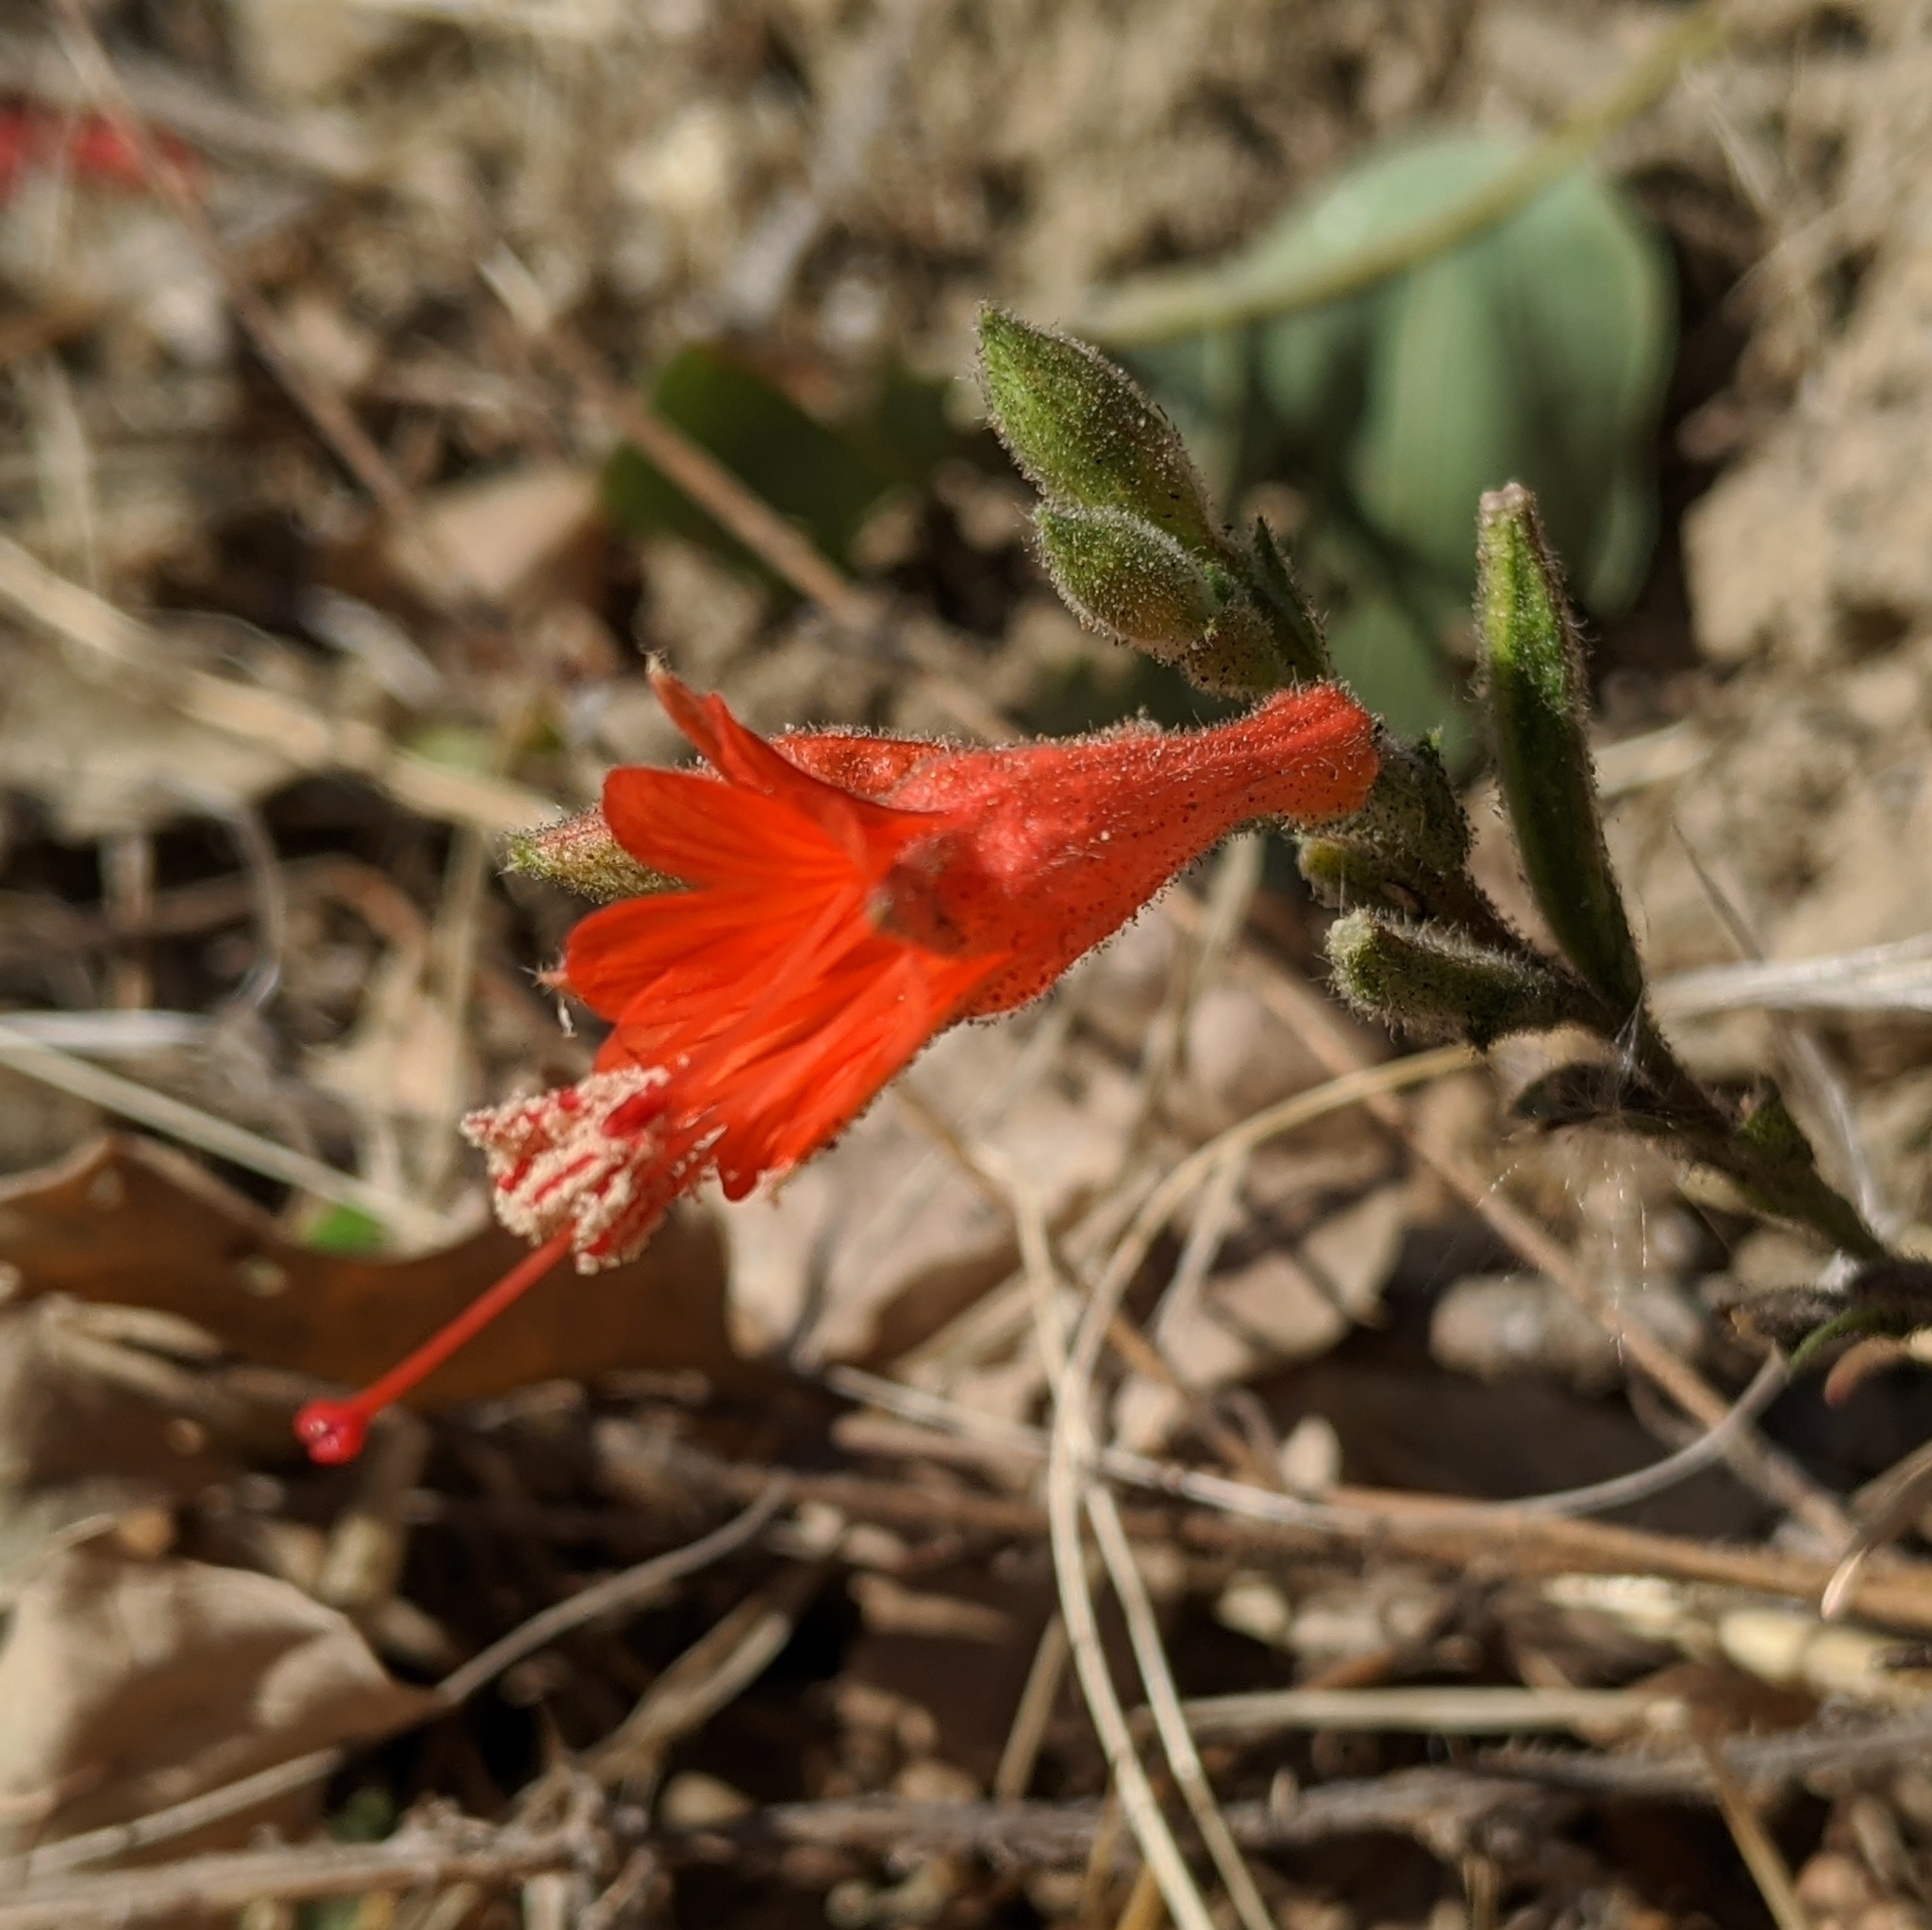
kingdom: Plantae
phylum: Tracheophyta
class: Magnoliopsida
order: Myrtales
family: Onagraceae
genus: Epilobium
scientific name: Epilobium canum
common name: California-fuchsia
